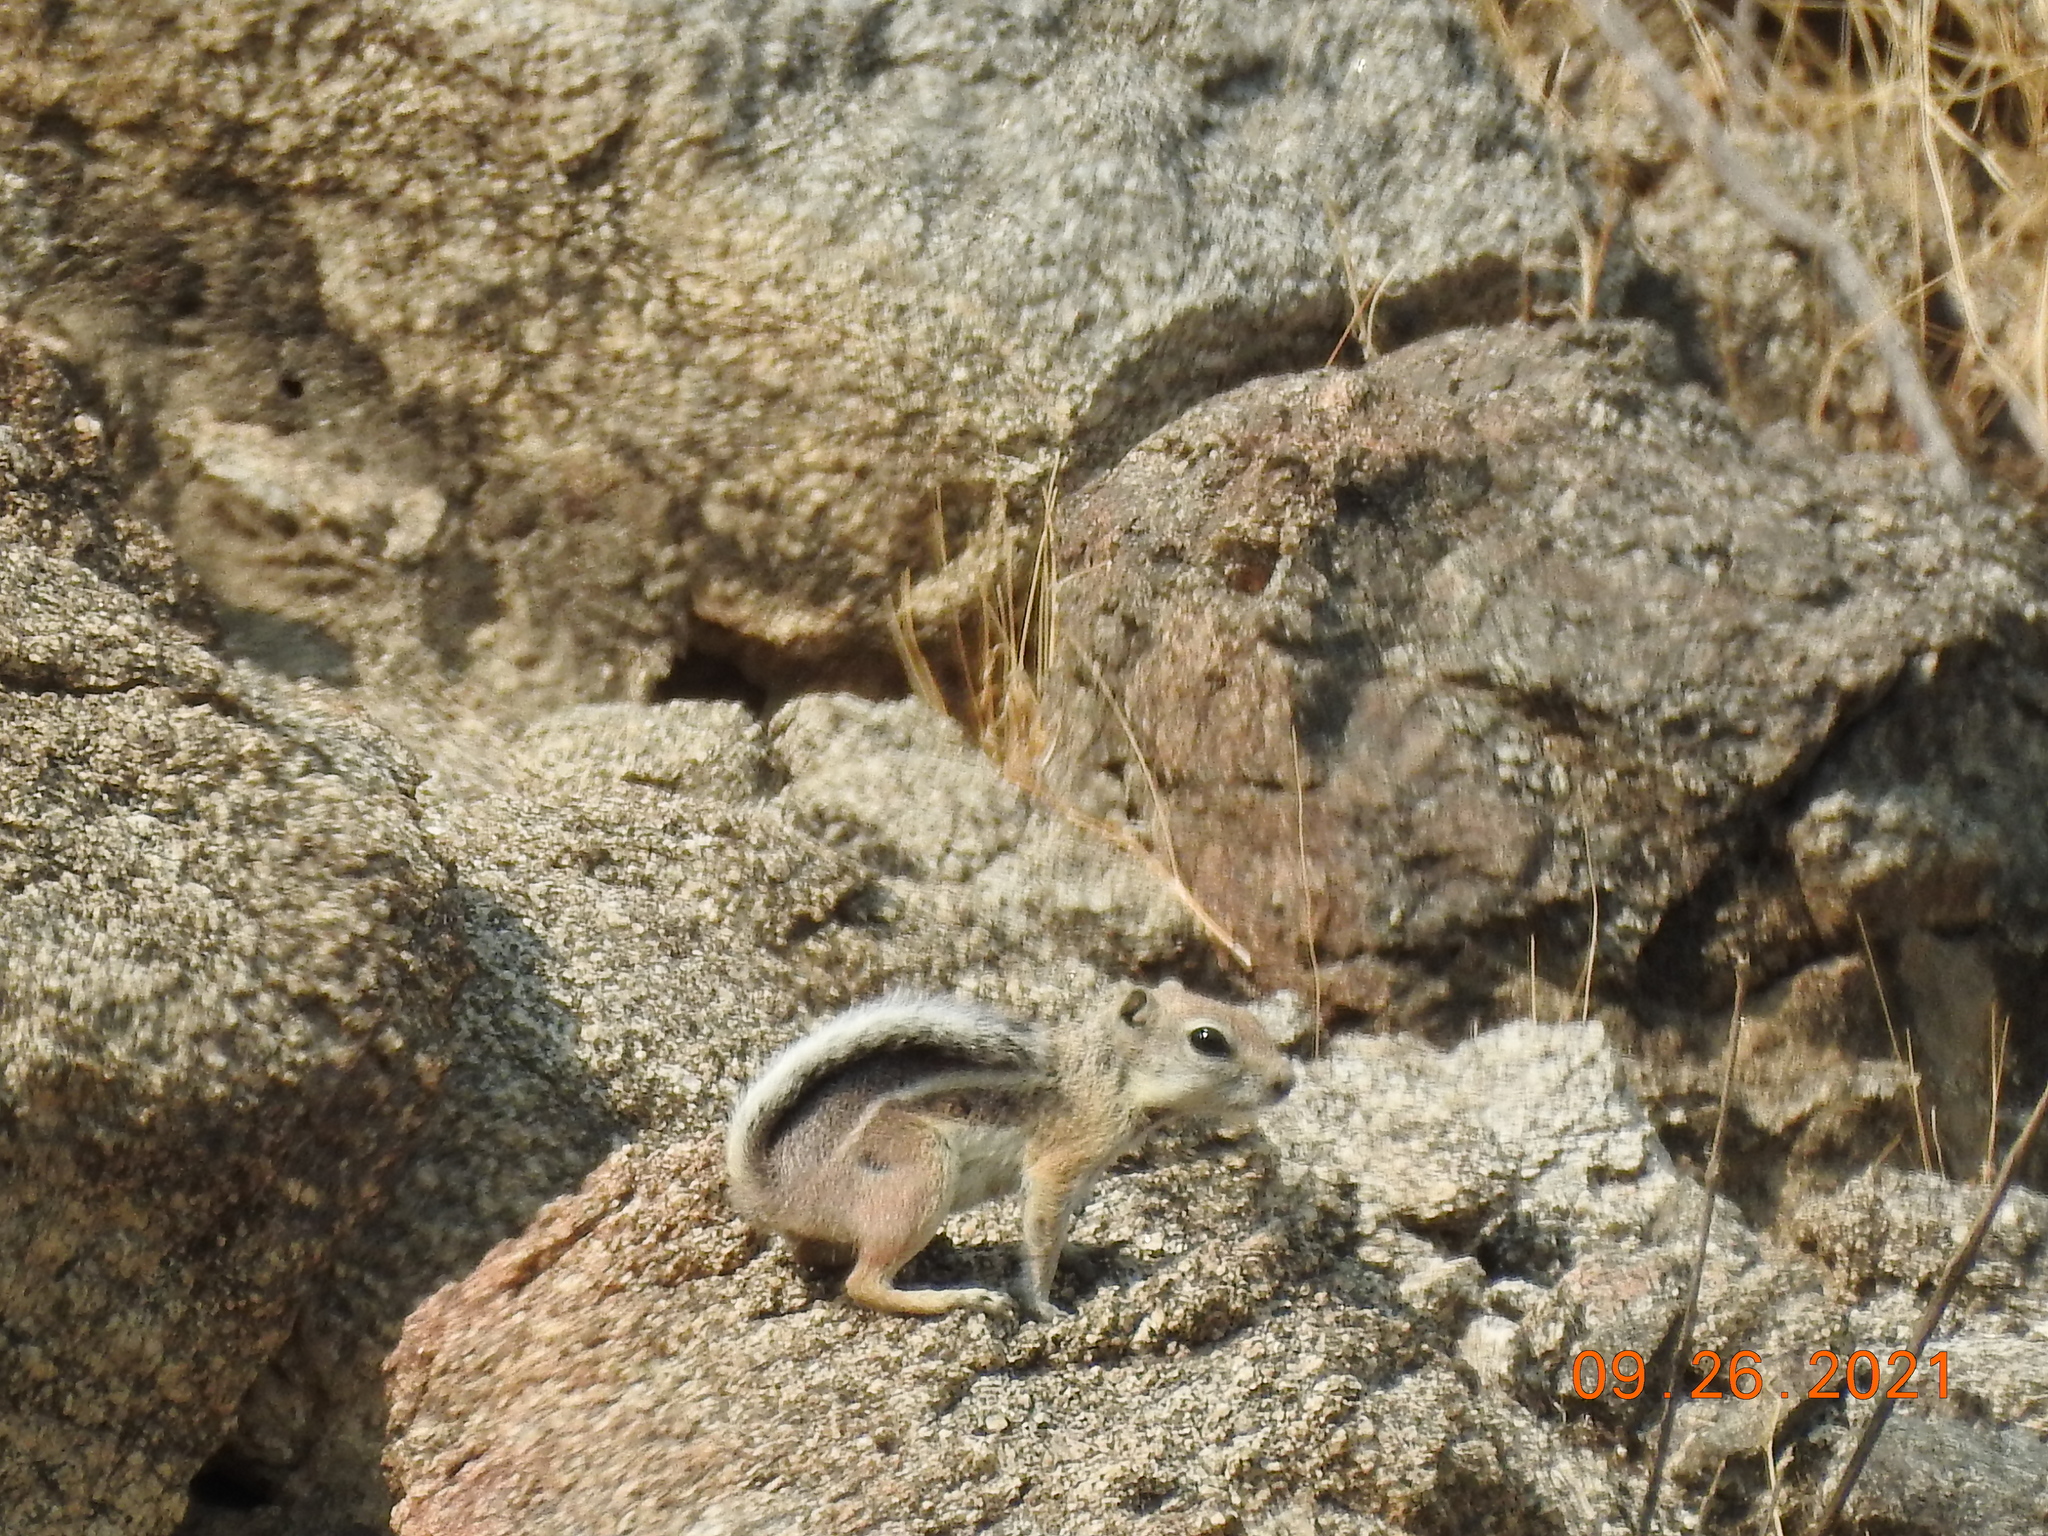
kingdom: Animalia
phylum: Chordata
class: Mammalia
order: Rodentia
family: Sciuridae
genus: Ammospermophilus
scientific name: Ammospermophilus leucurus
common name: White-tailed antelope squirrel
